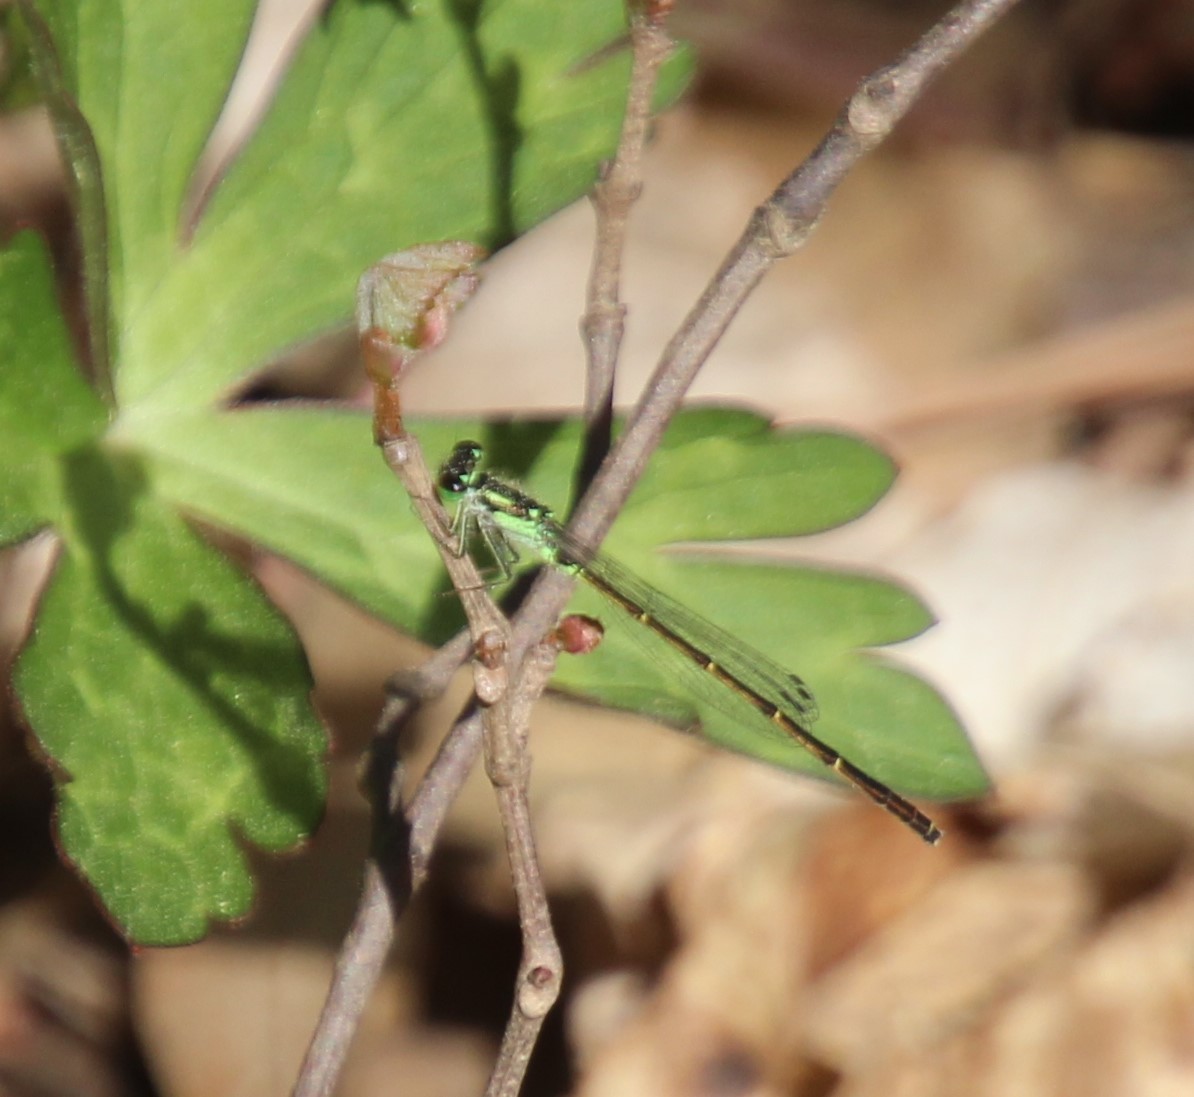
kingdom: Animalia
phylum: Arthropoda
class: Insecta
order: Odonata
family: Coenagrionidae
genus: Ischnura
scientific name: Ischnura posita
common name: Fragile forktail
